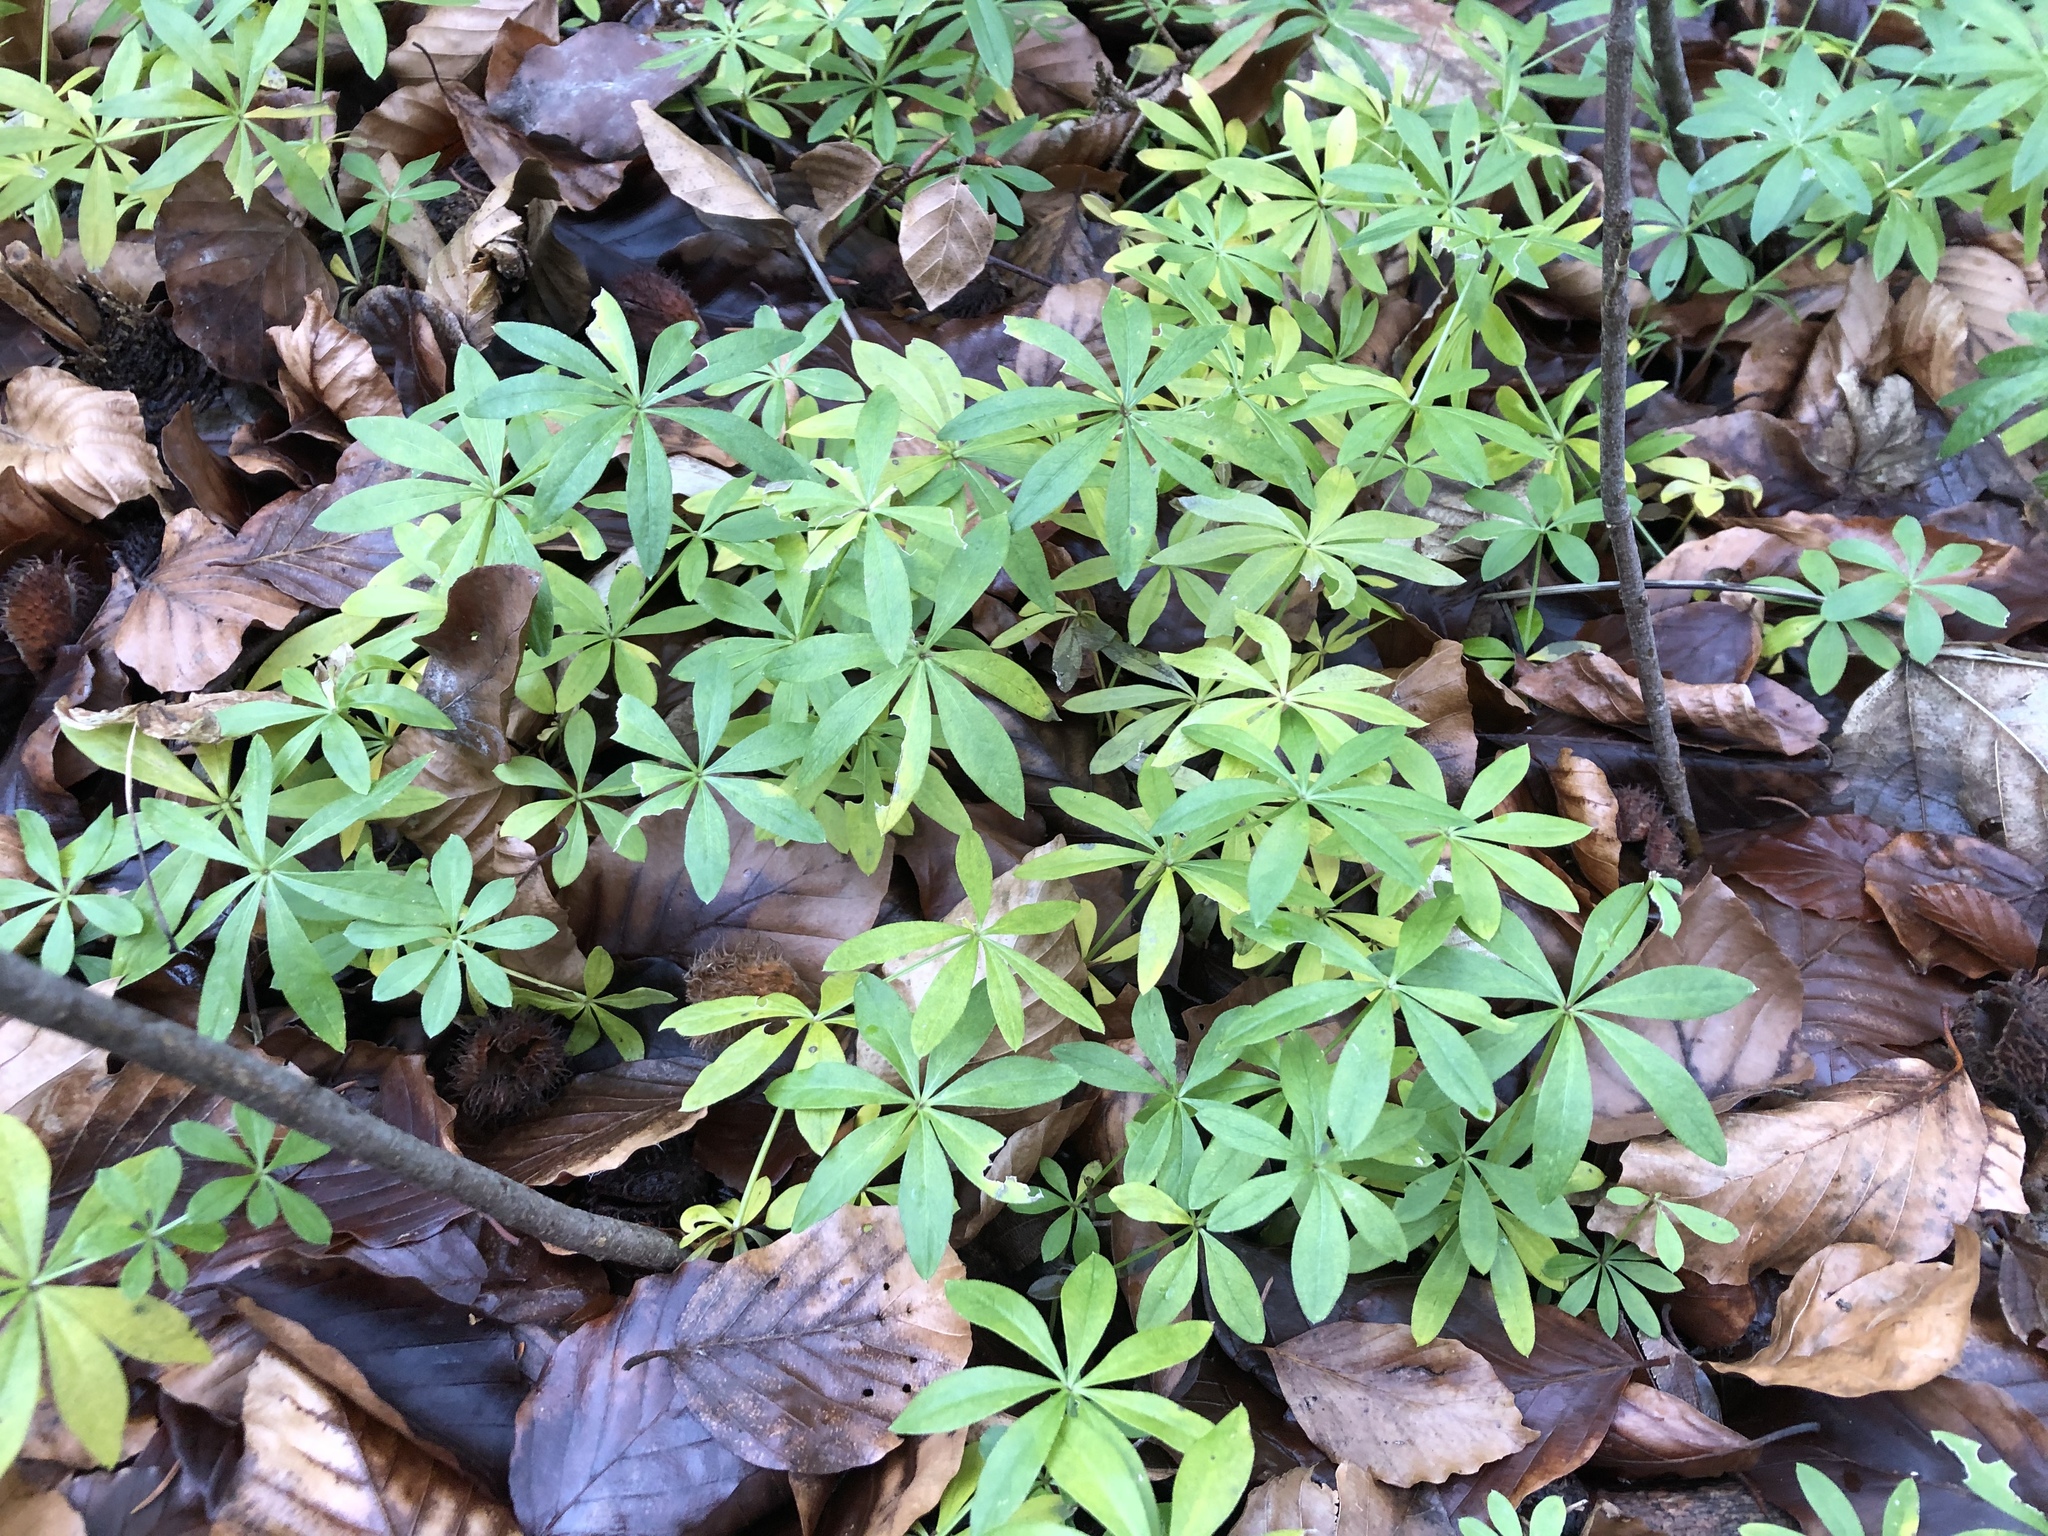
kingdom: Plantae
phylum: Tracheophyta
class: Magnoliopsida
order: Gentianales
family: Rubiaceae
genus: Galium
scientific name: Galium odoratum
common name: Sweet woodruff
